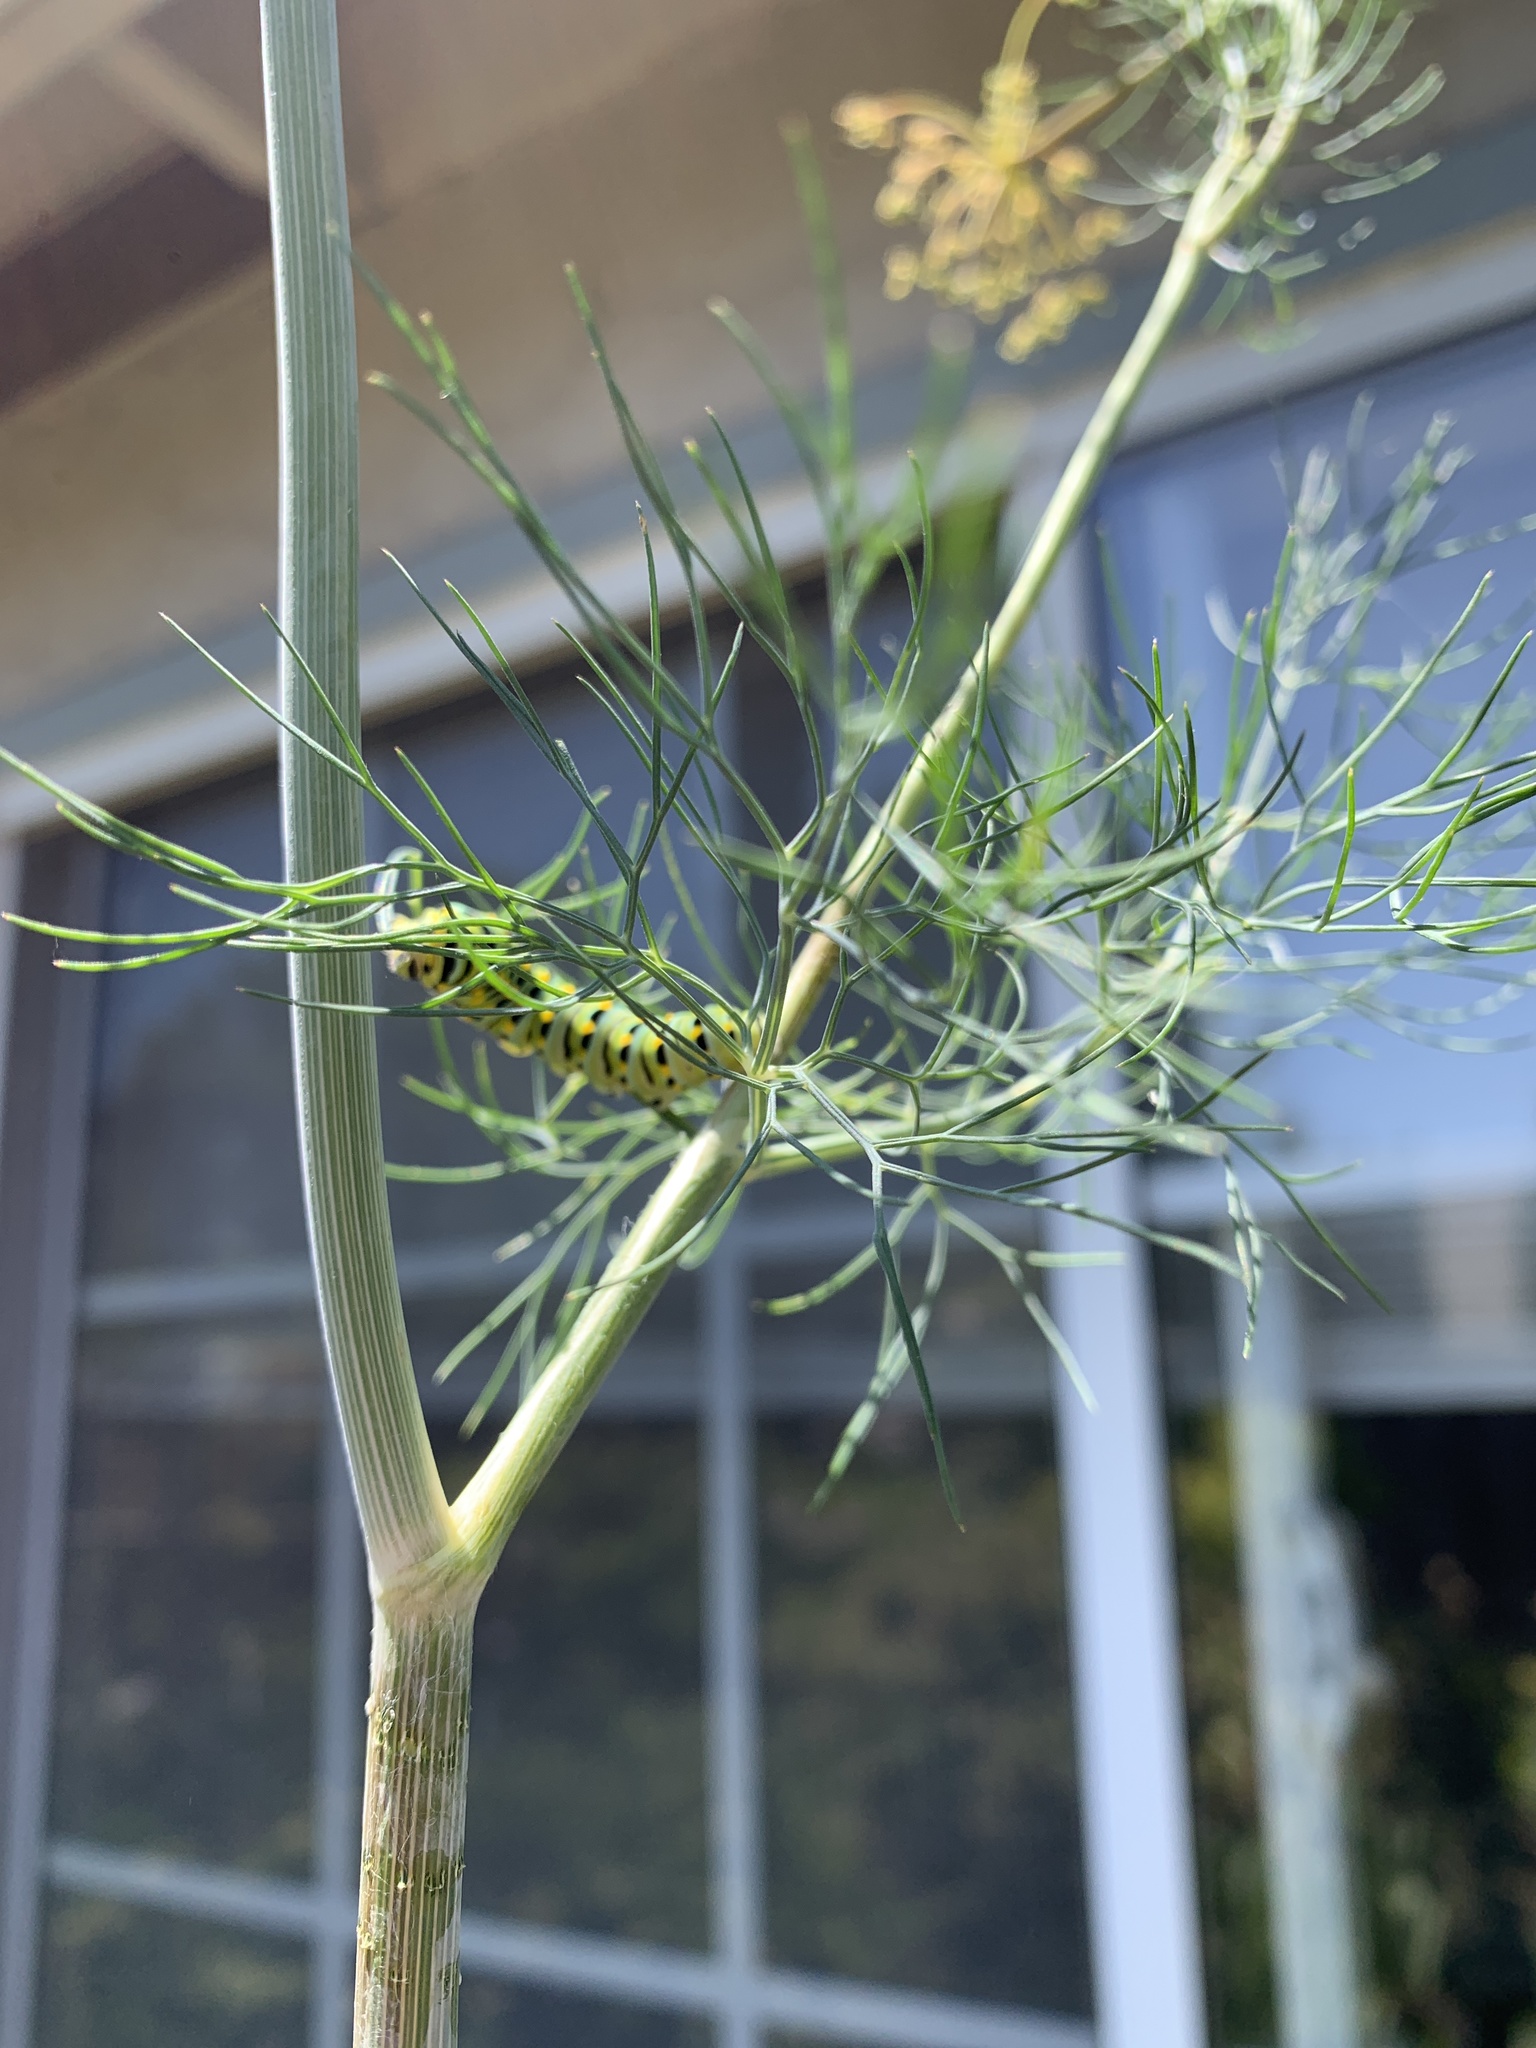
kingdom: Animalia
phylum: Arthropoda
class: Insecta
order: Lepidoptera
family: Papilionidae
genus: Papilio
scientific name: Papilio zelicaon
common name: Anise swallowtail
